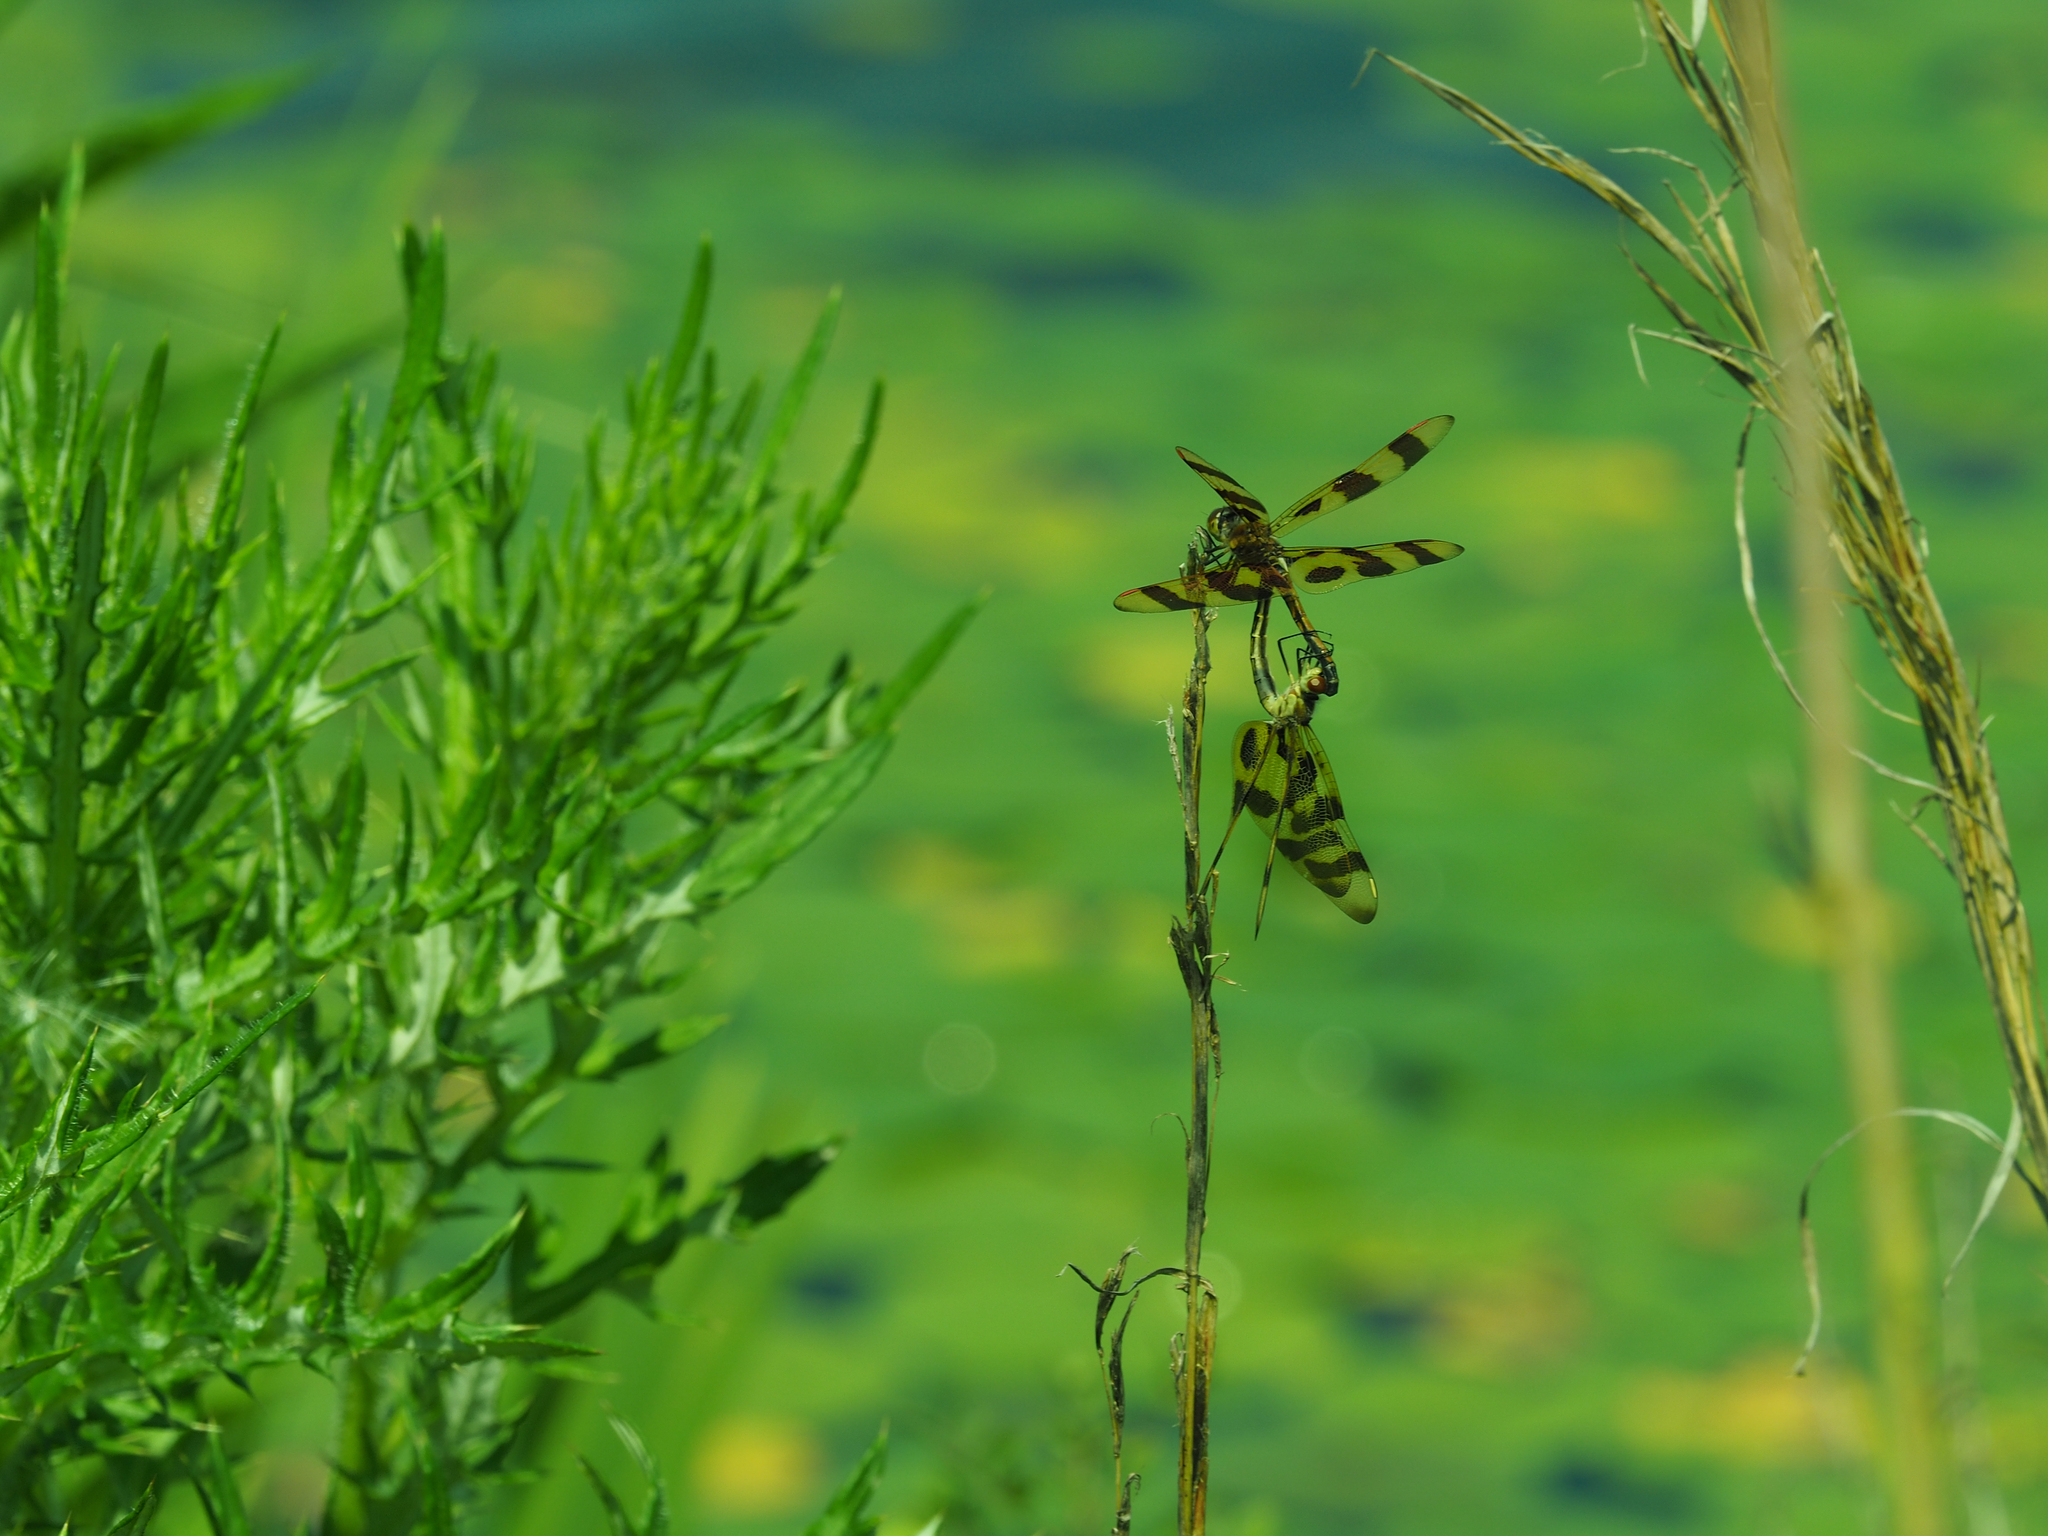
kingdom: Animalia
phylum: Arthropoda
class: Insecta
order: Odonata
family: Libellulidae
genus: Celithemis
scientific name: Celithemis eponina
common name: Halloween pennant
